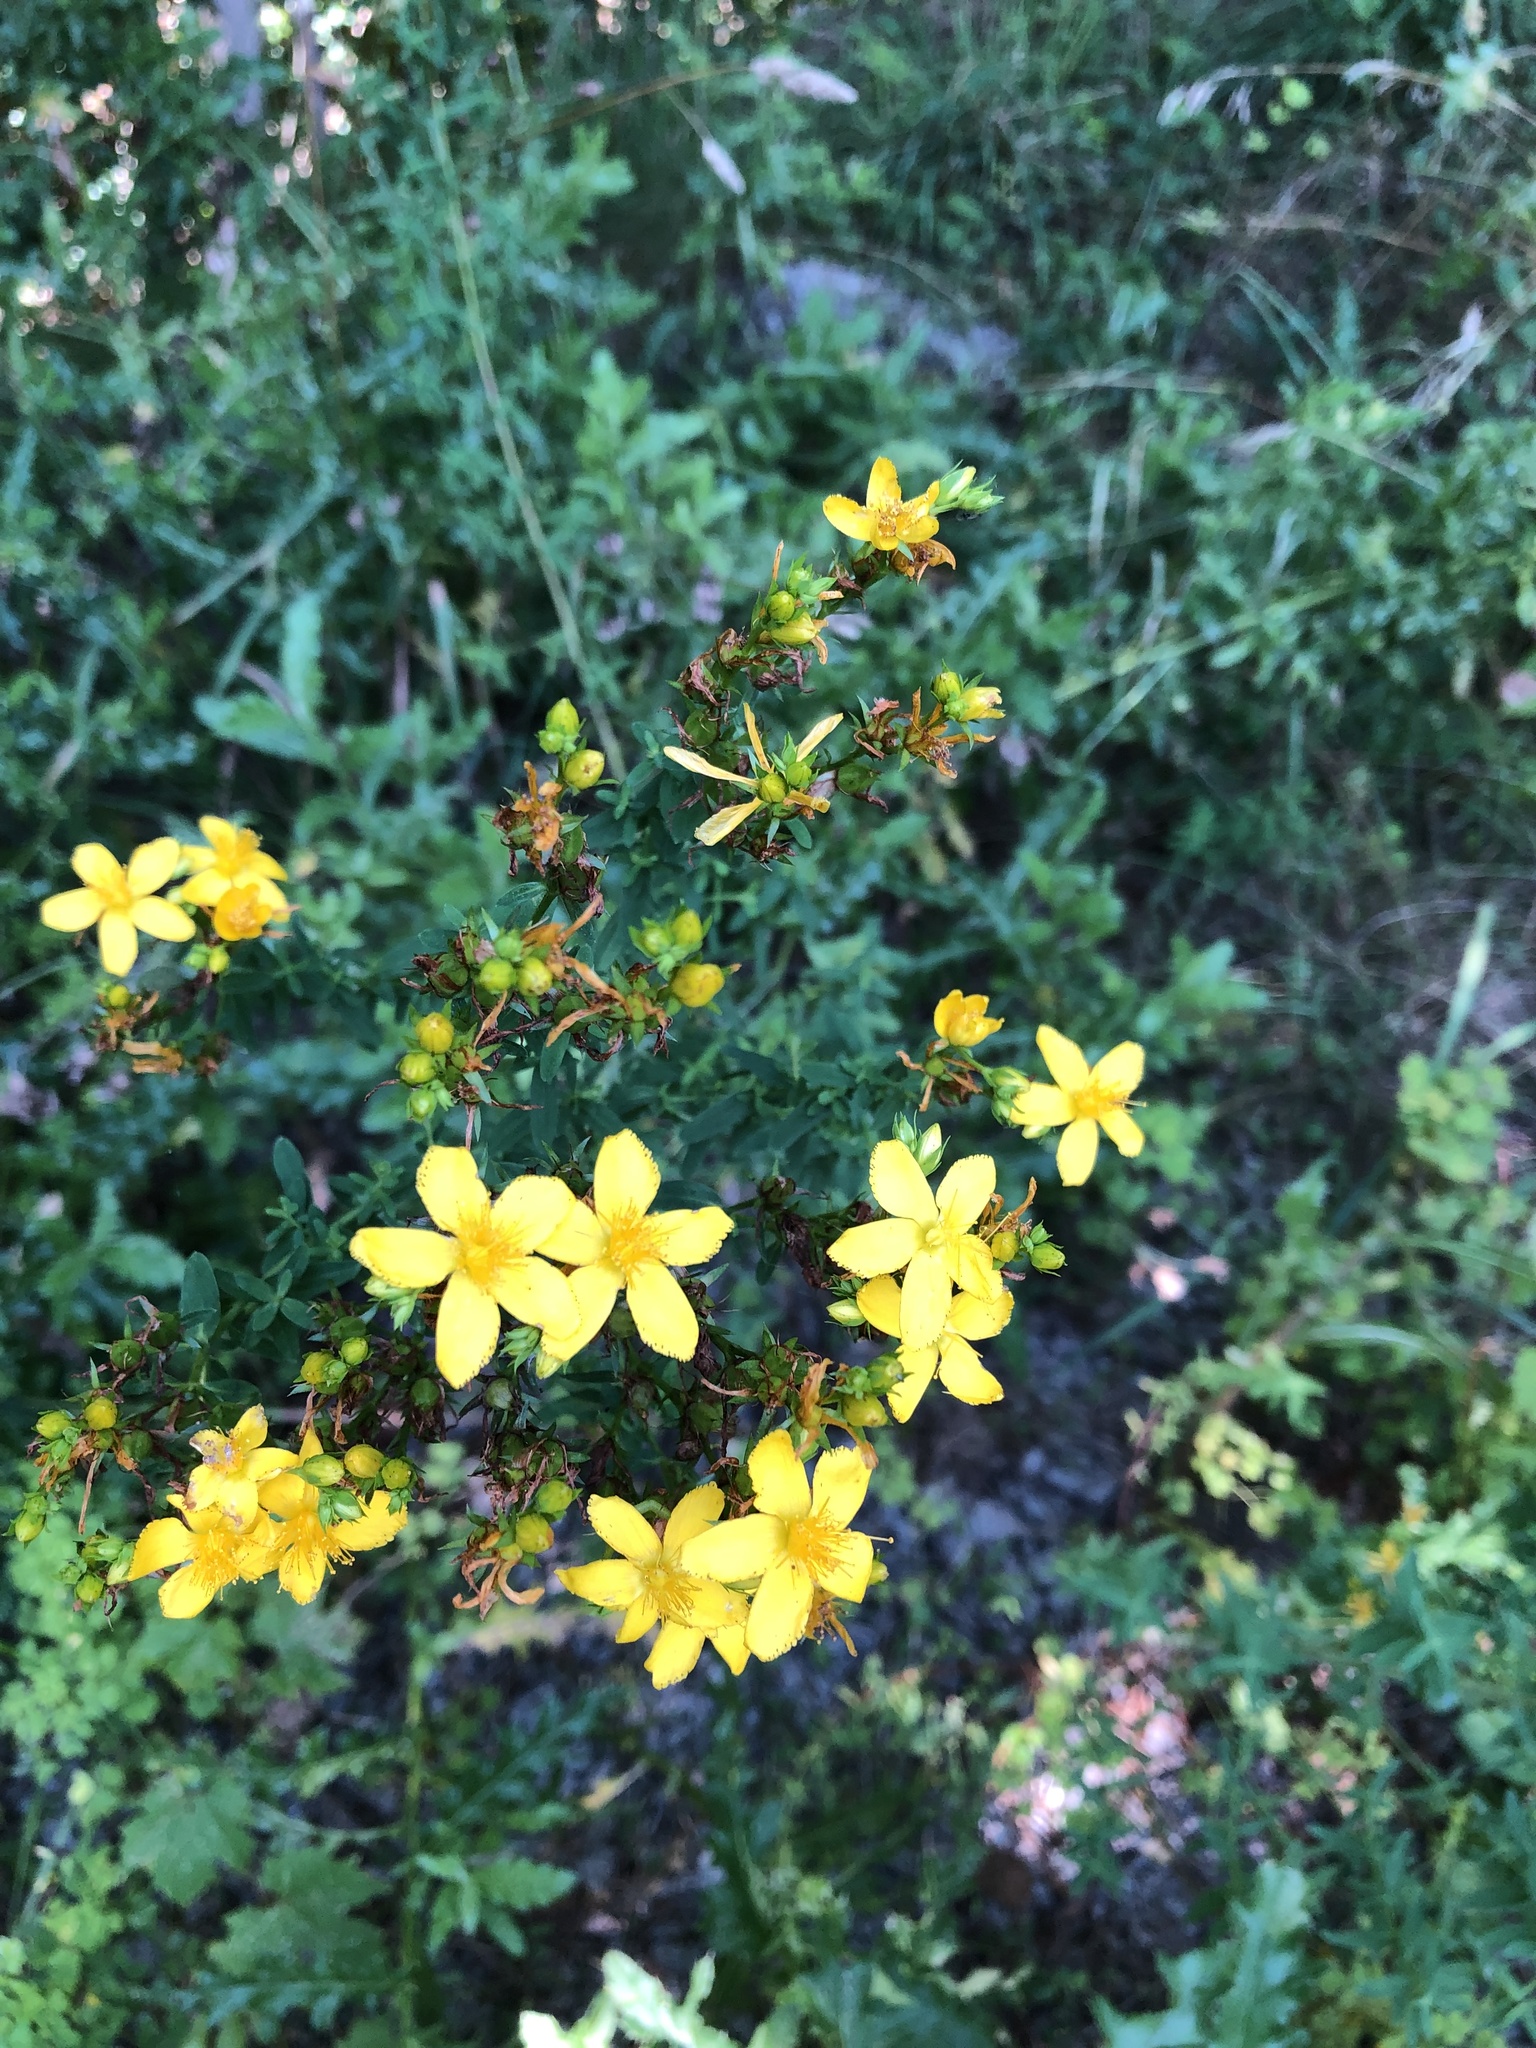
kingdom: Plantae
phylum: Tracheophyta
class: Magnoliopsida
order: Malpighiales
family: Hypericaceae
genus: Hypericum
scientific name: Hypericum perforatum
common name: Common st. johnswort
